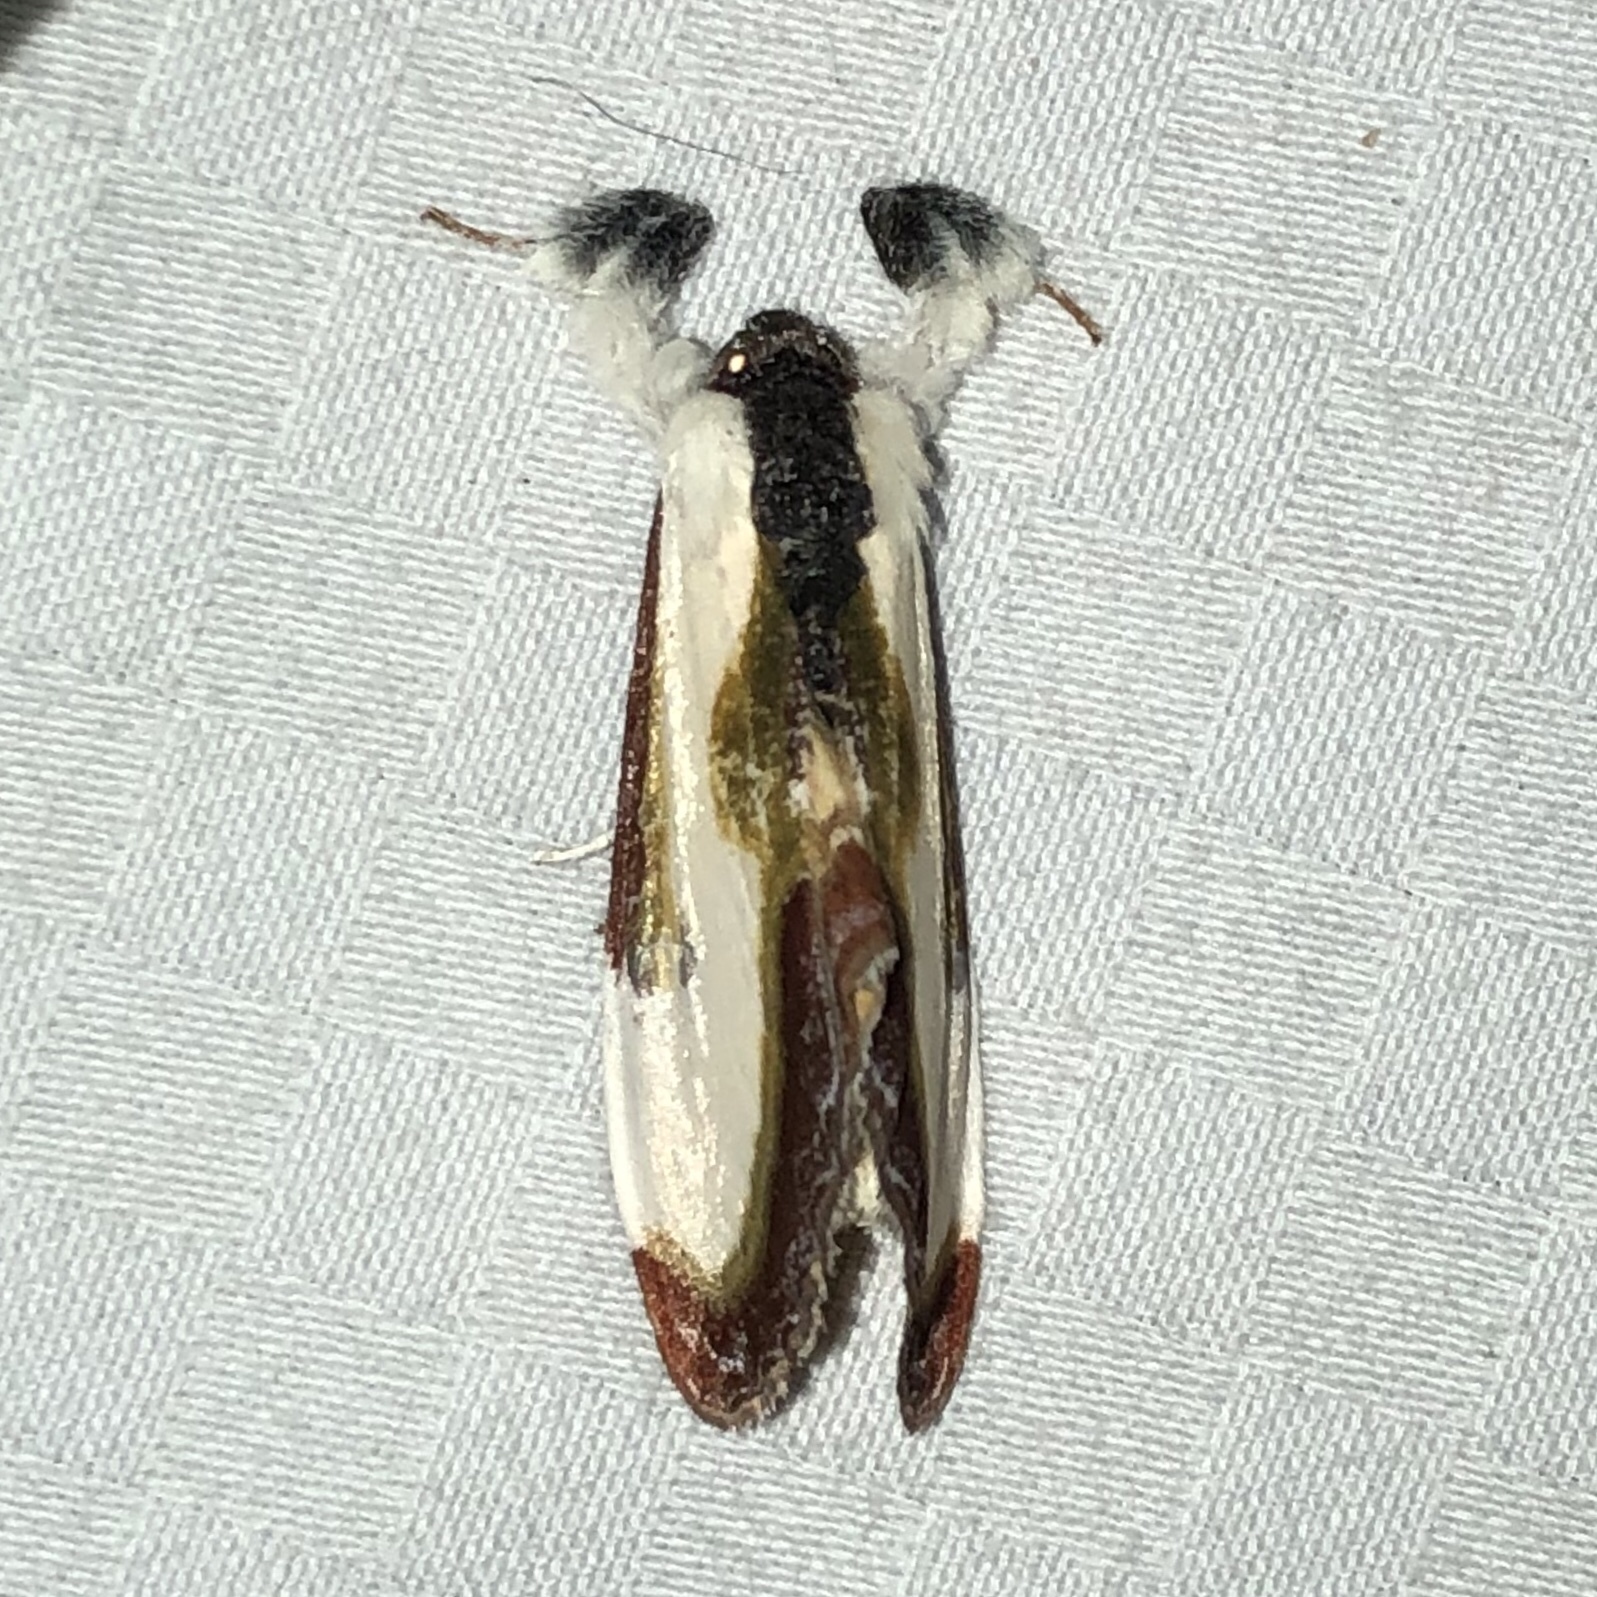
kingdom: Animalia
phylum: Arthropoda
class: Insecta
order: Lepidoptera
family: Noctuidae
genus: Eudryas
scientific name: Eudryas grata
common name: Beautiful wood-nymph
